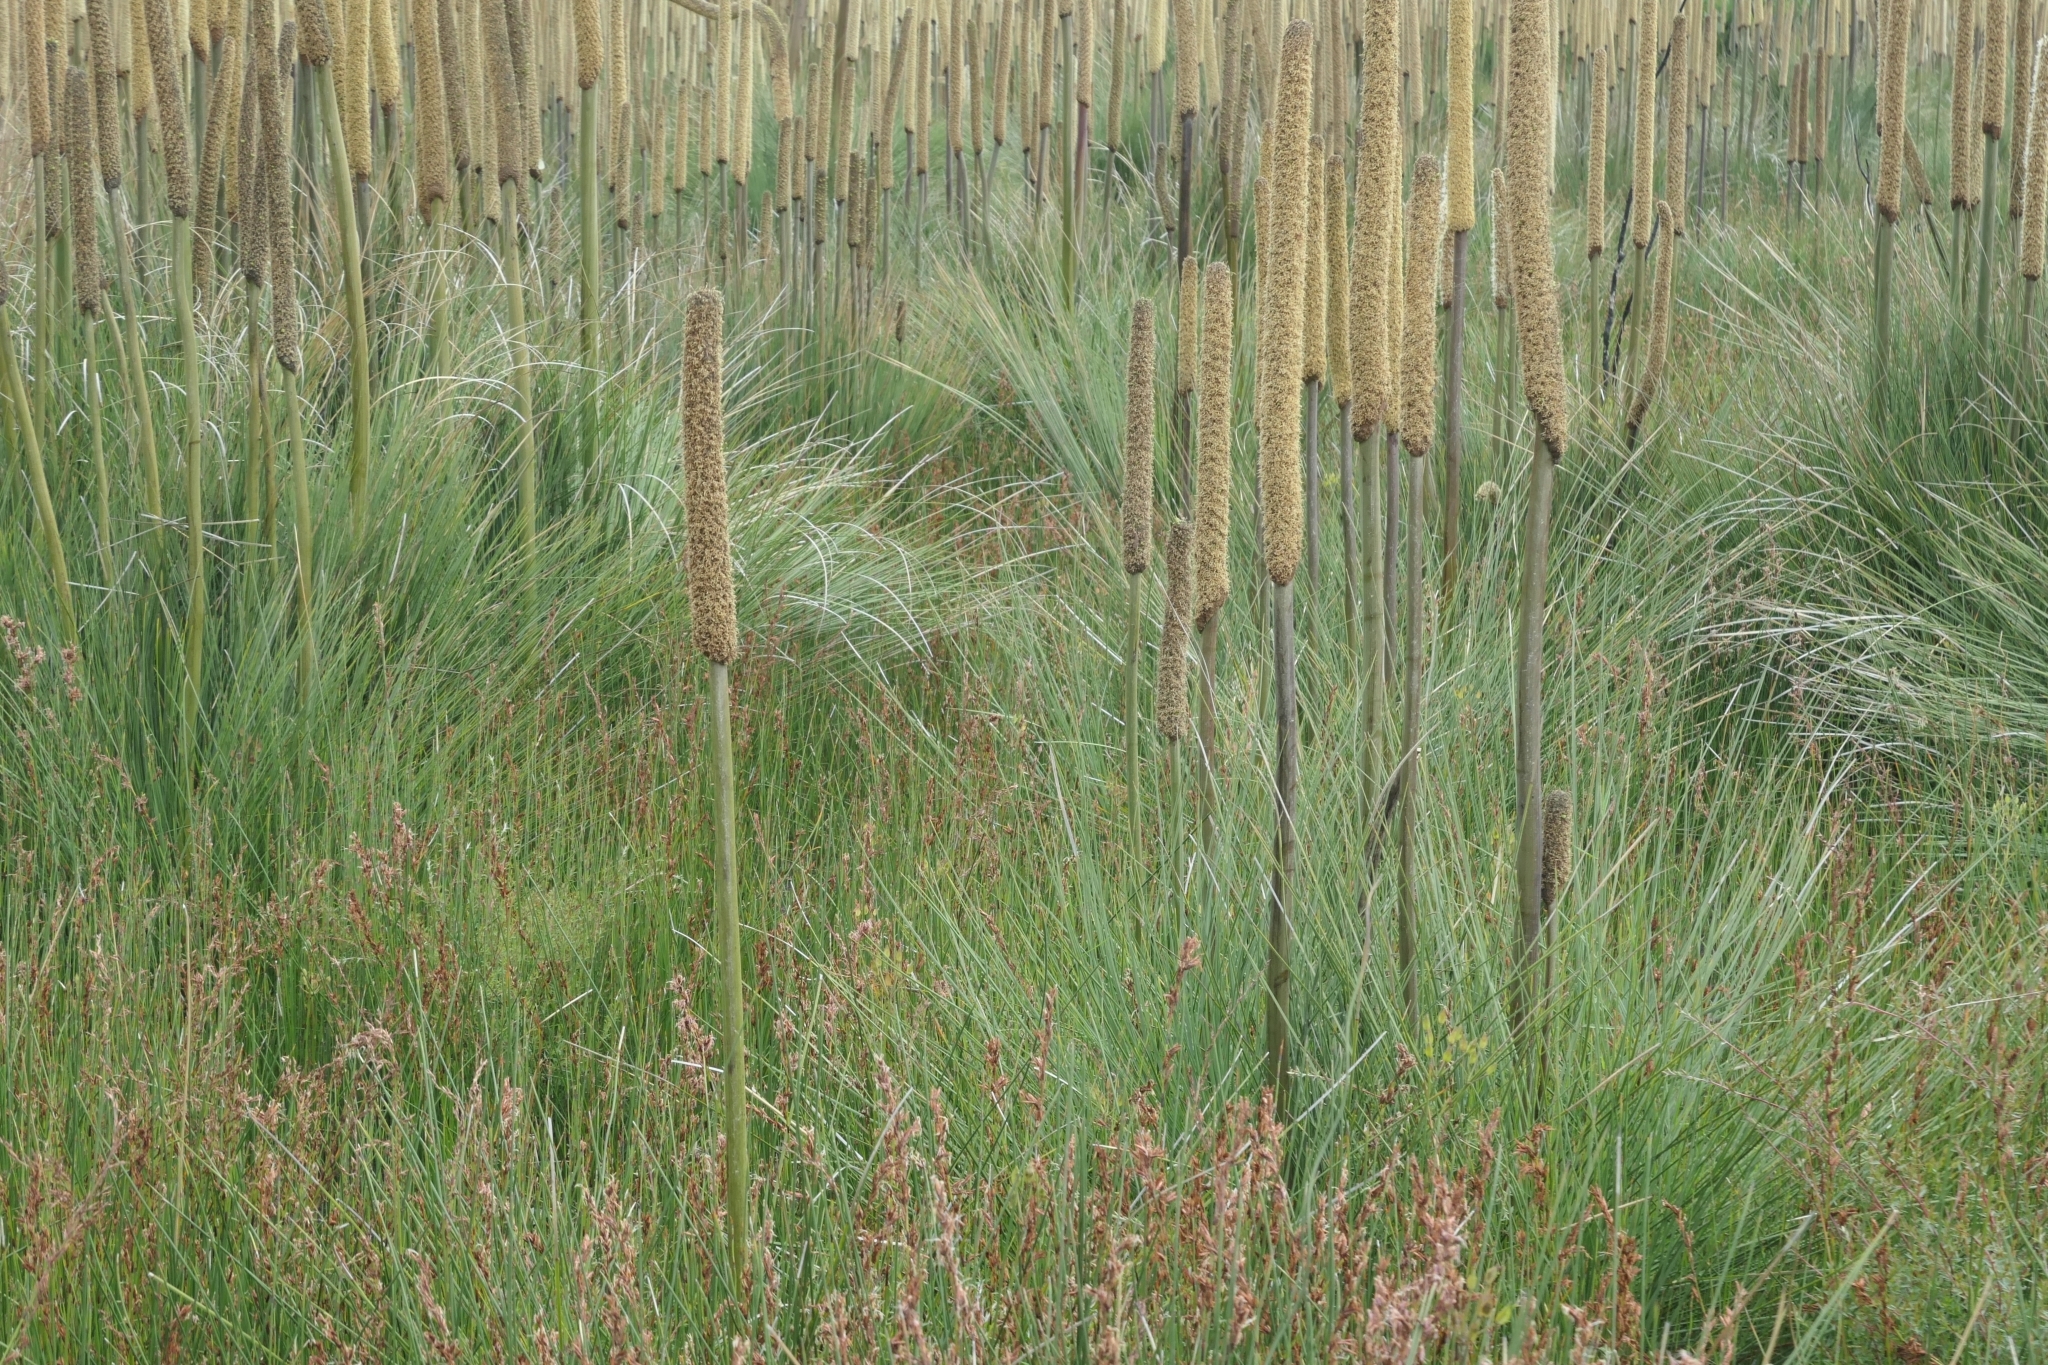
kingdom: Plantae
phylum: Tracheophyta
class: Liliopsida
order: Asparagales
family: Asphodelaceae
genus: Xanthorrhoea
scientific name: Xanthorrhoea resinosa
